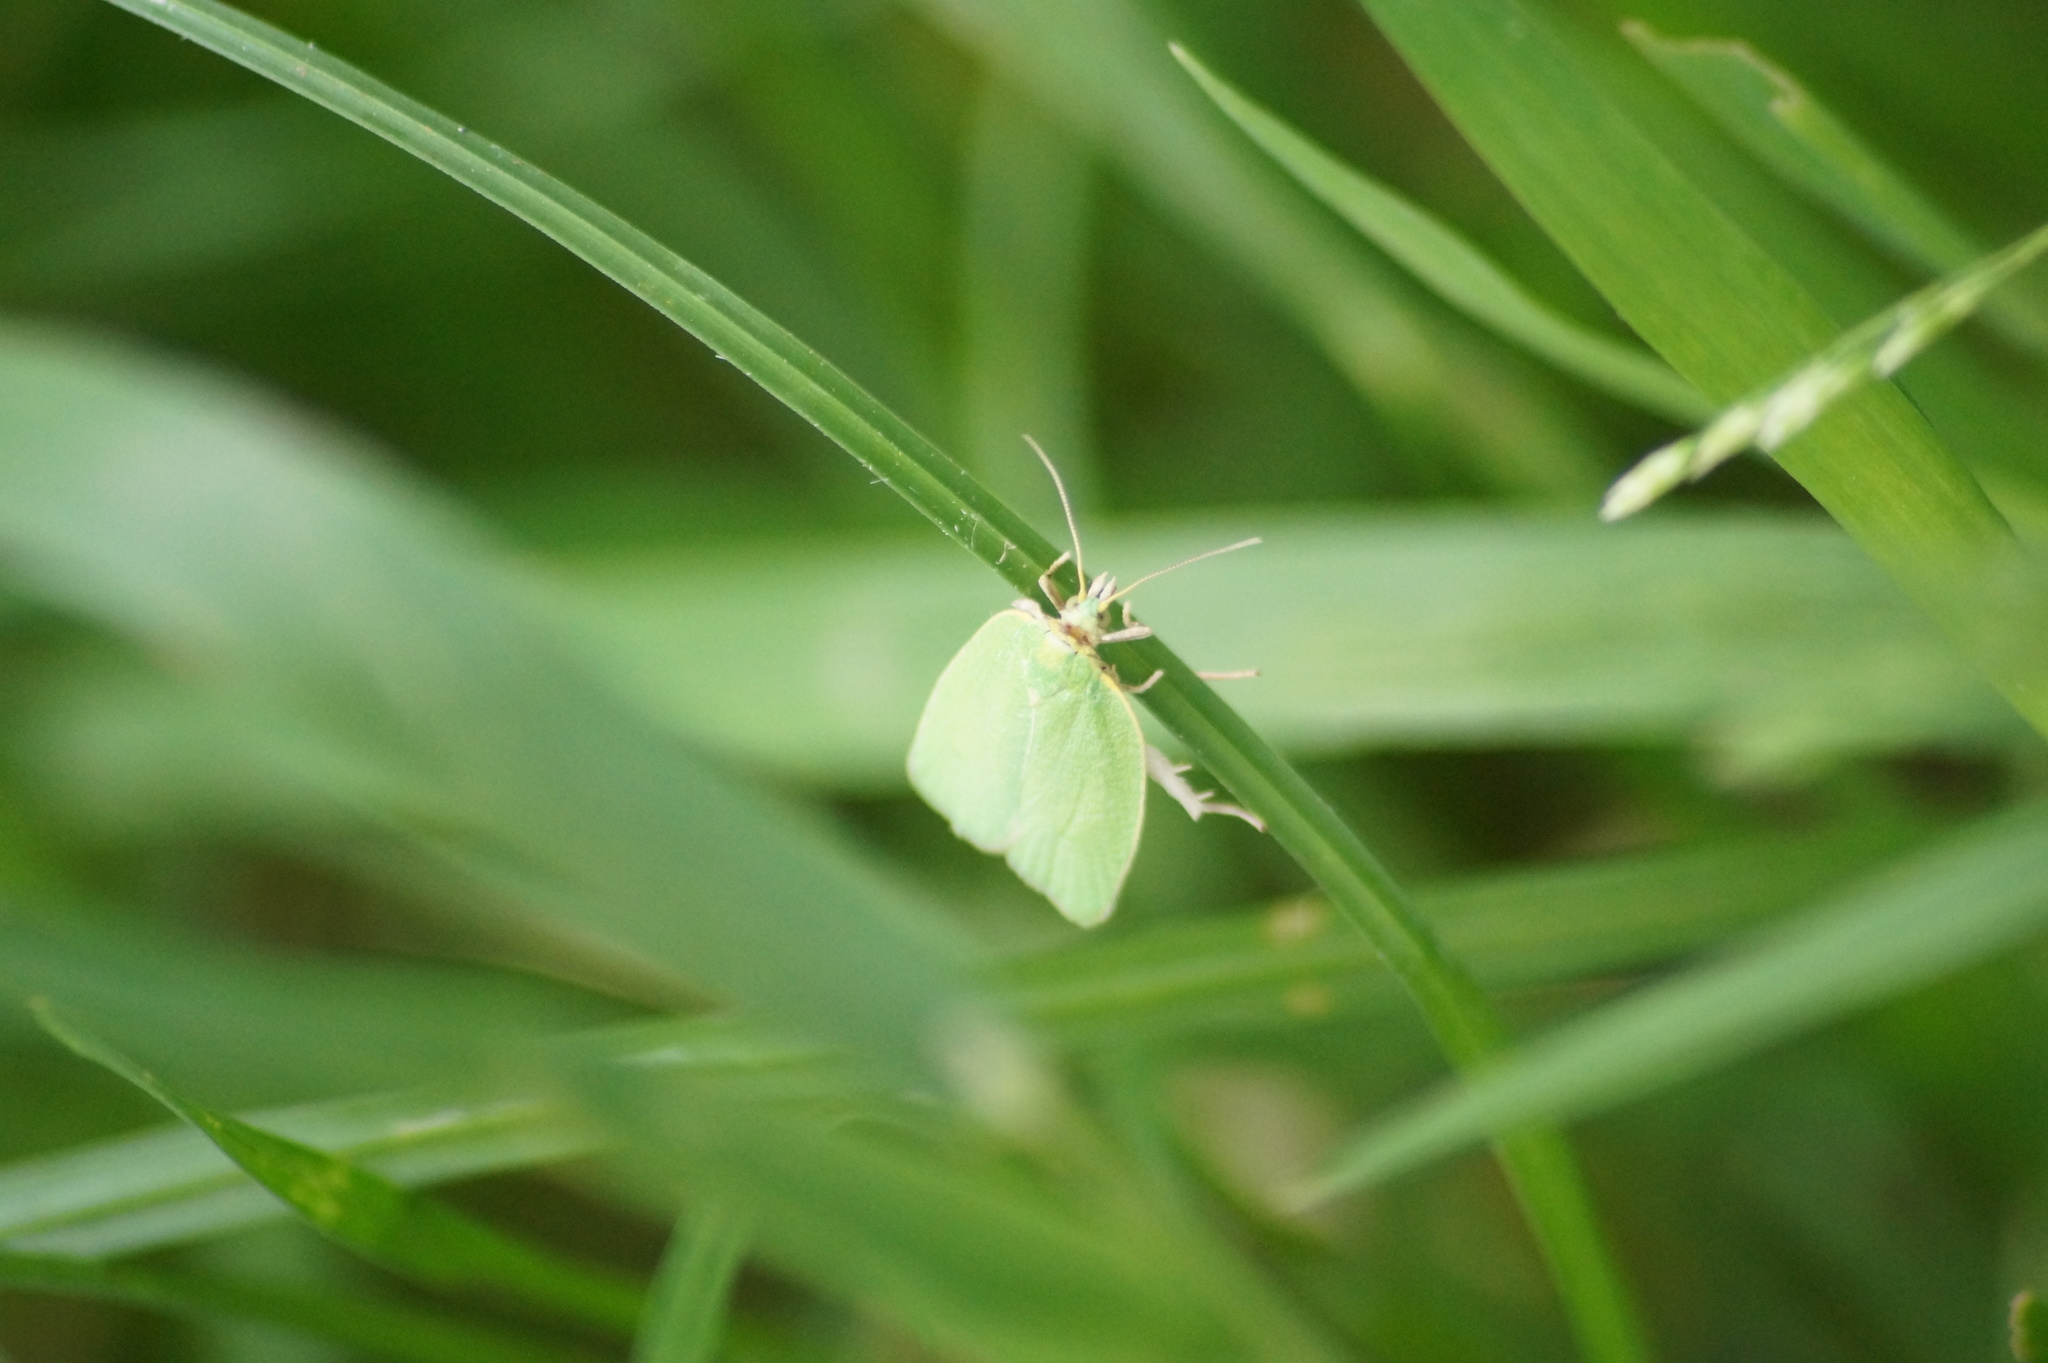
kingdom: Animalia
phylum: Arthropoda
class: Insecta
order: Lepidoptera
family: Tortricidae
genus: Tortrix
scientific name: Tortrix viridana
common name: Green oak tortrix
